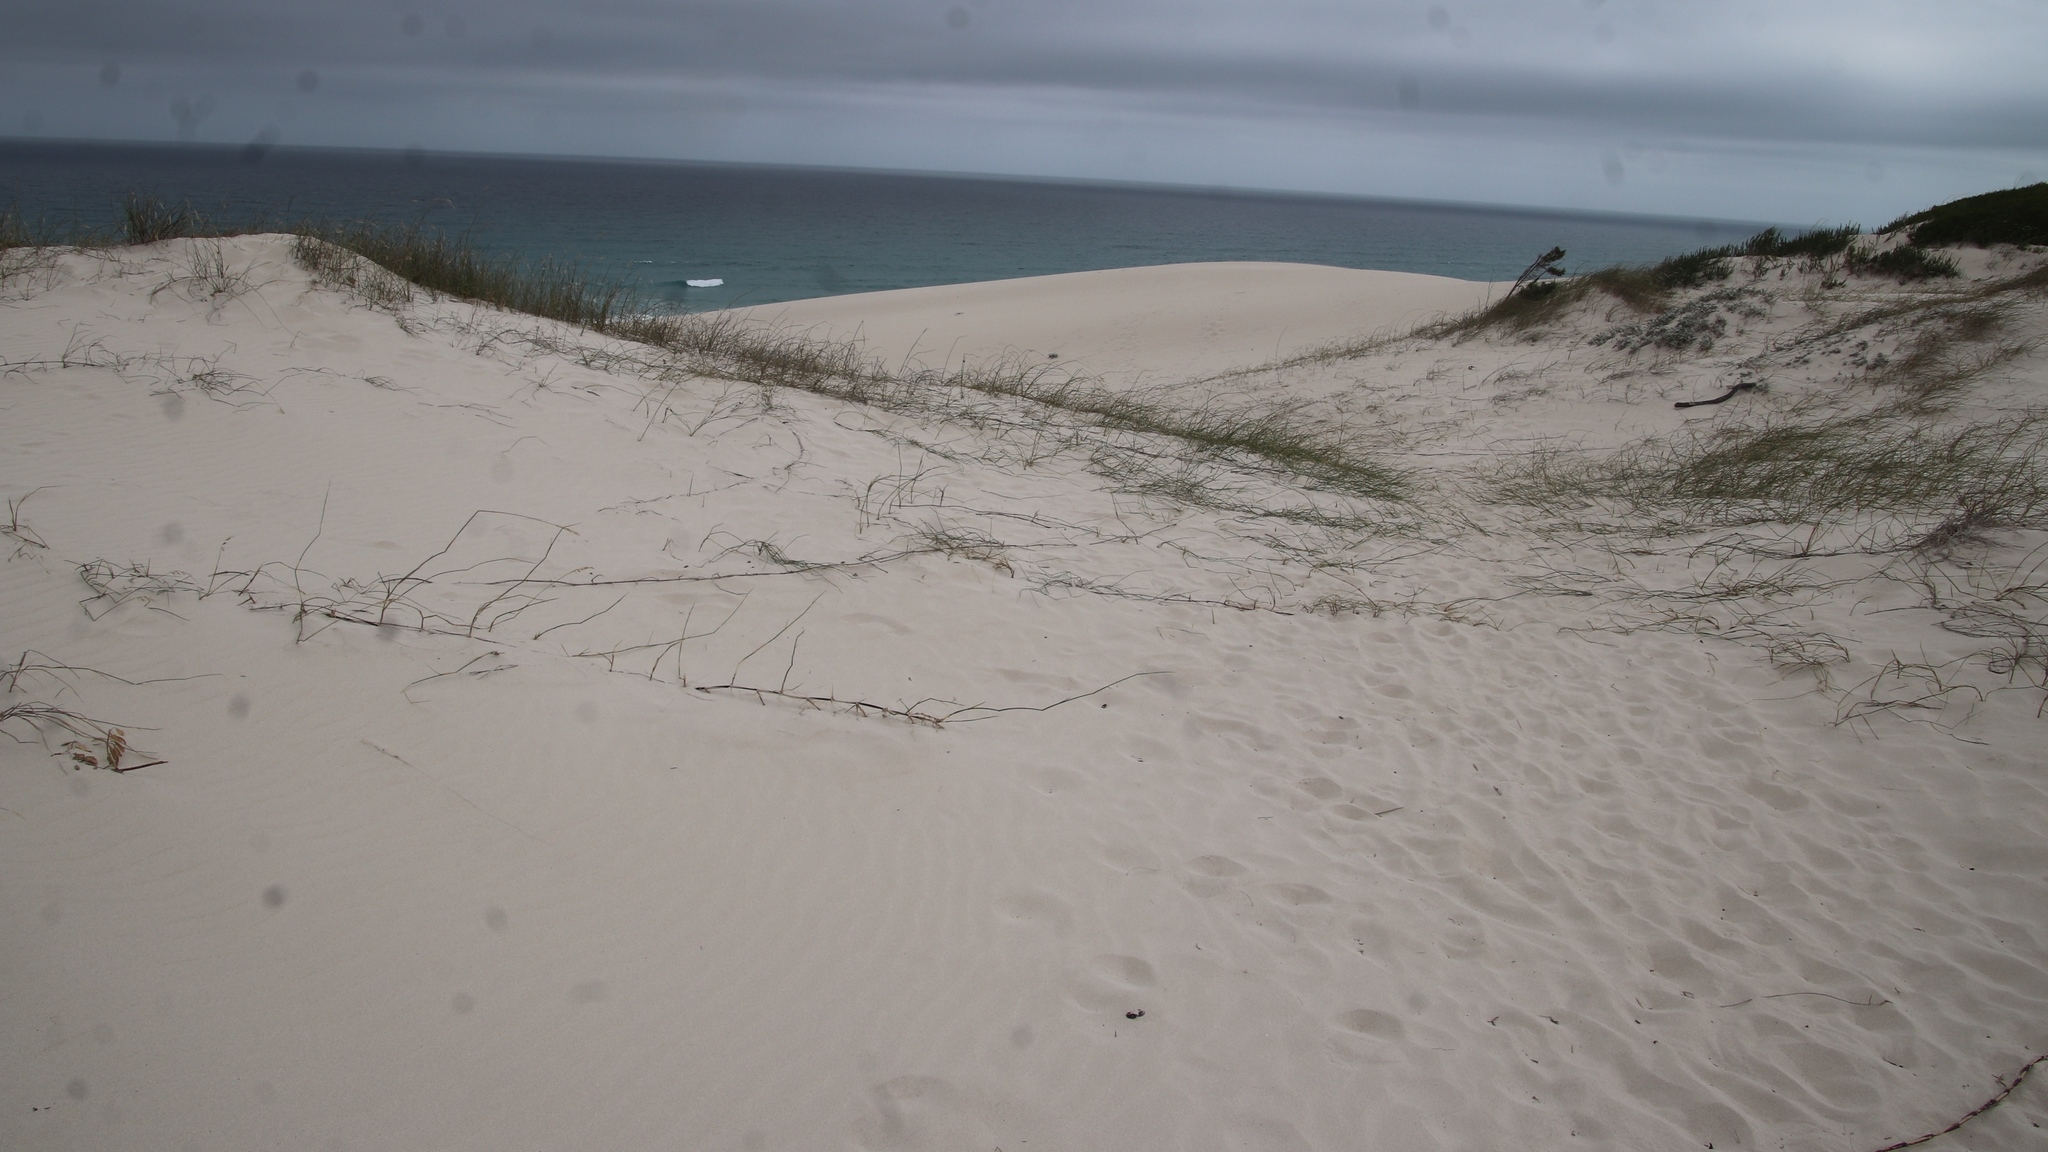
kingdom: Plantae
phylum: Tracheophyta
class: Liliopsida
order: Poales
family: Poaceae
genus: Ehrharta
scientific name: Ehrharta villosa
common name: Pyp grass
